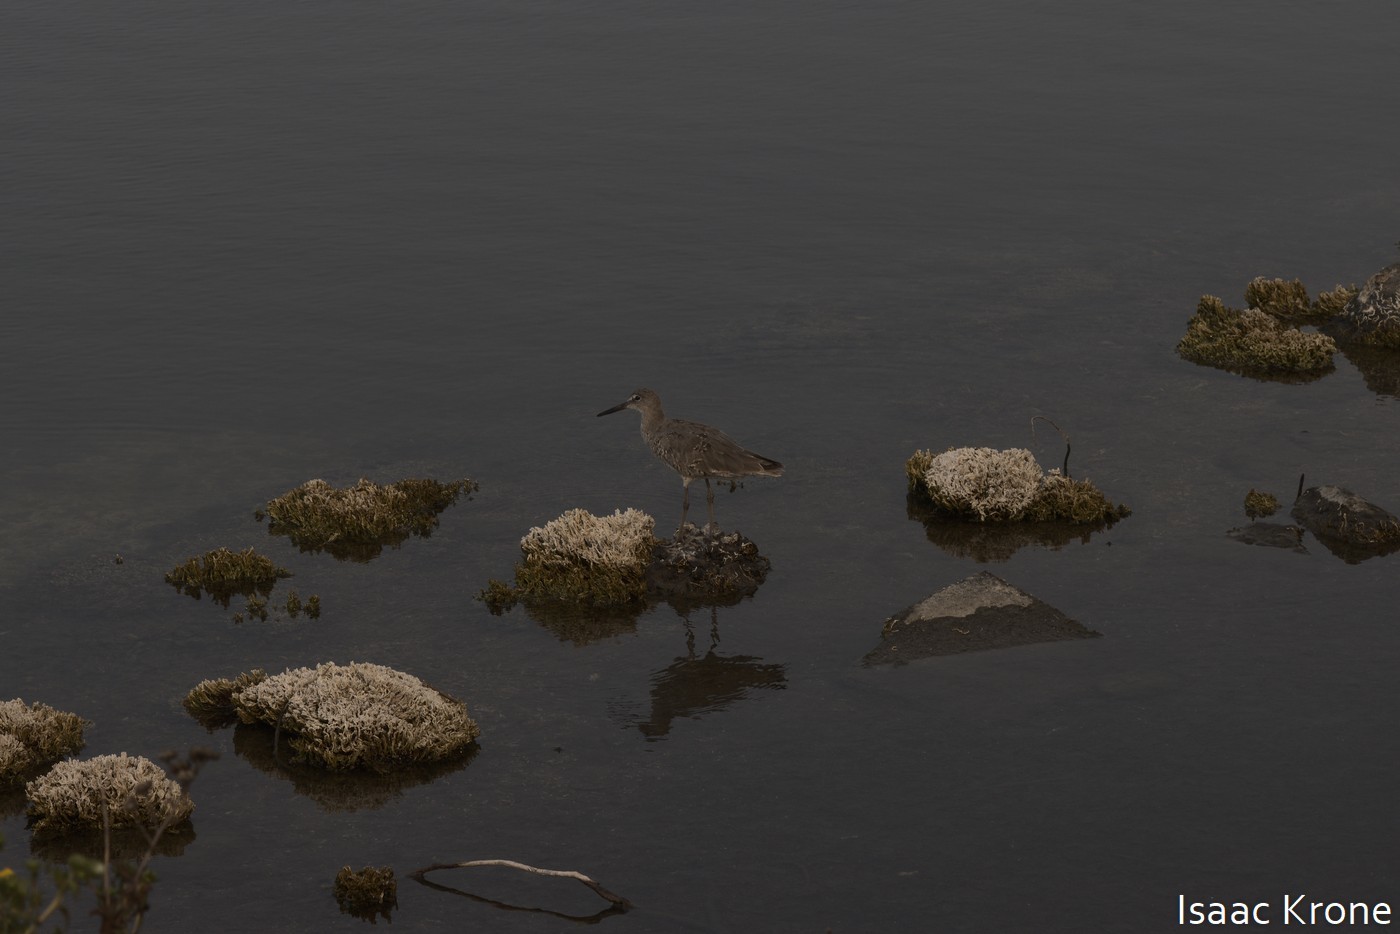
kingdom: Animalia
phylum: Chordata
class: Aves
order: Charadriiformes
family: Scolopacidae
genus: Tringa
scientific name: Tringa semipalmata
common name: Willet
